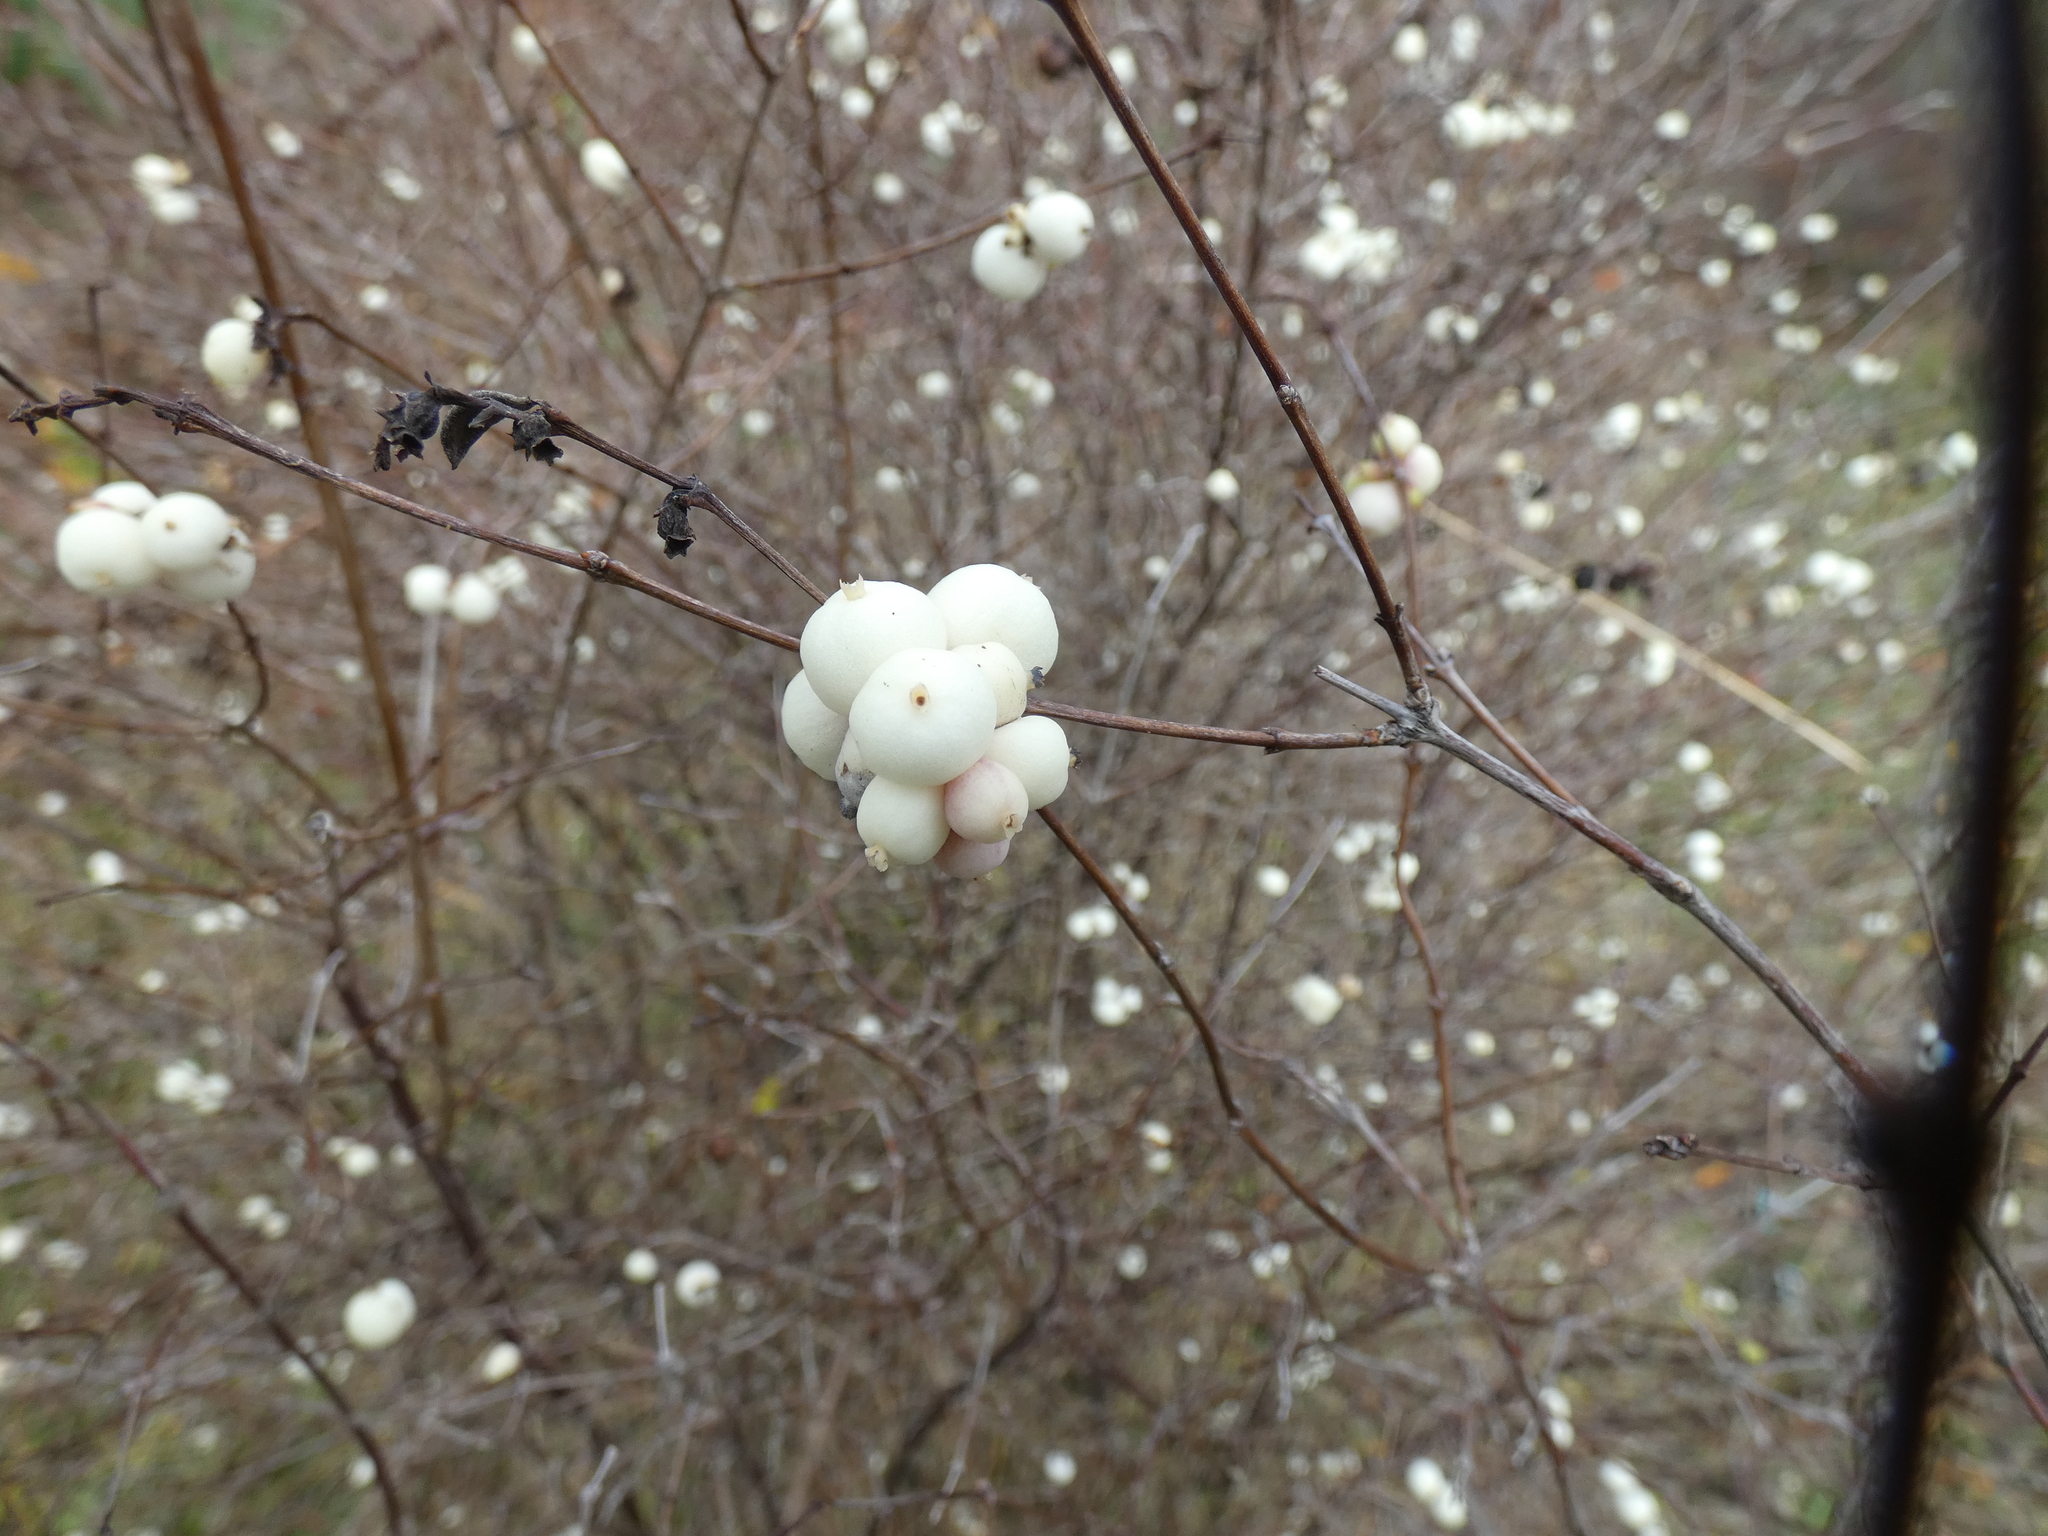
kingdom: Plantae
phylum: Tracheophyta
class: Magnoliopsida
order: Dipsacales
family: Caprifoliaceae
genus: Symphoricarpos
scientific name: Symphoricarpos albus
